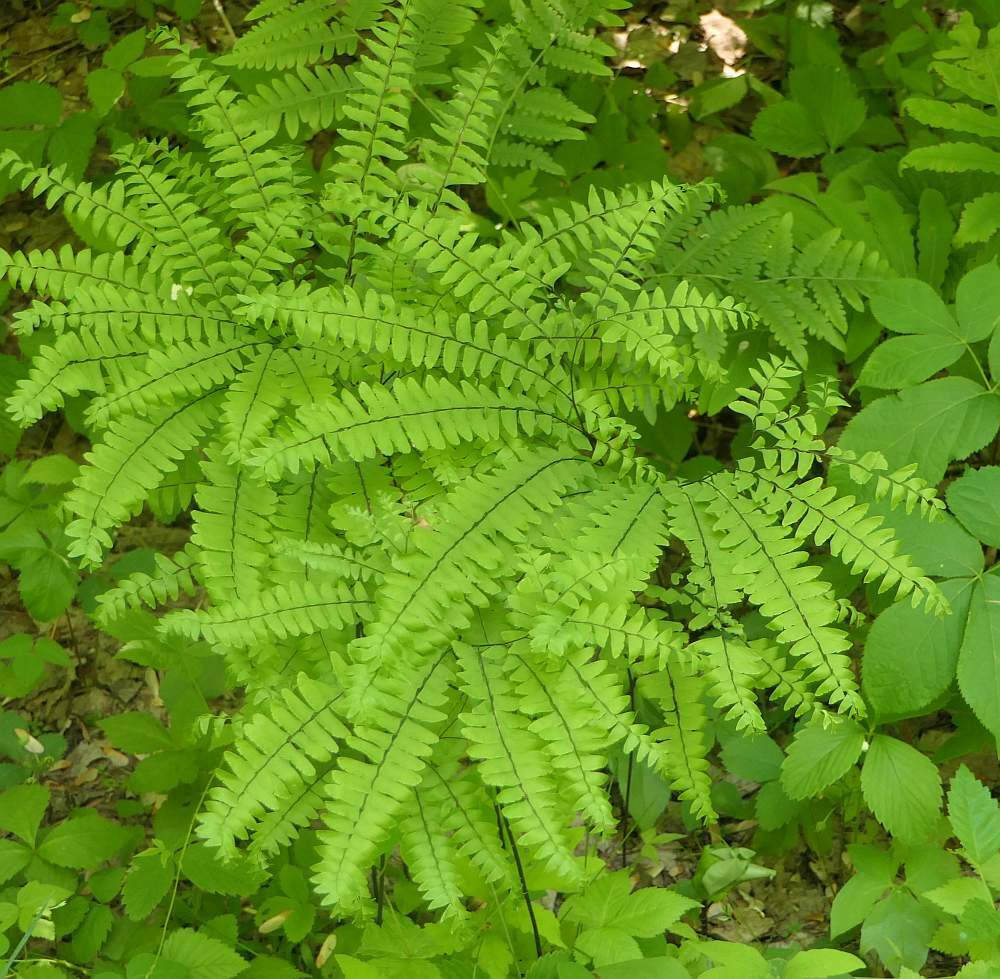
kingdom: Plantae
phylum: Tracheophyta
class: Polypodiopsida
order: Polypodiales
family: Pteridaceae
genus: Adiantum
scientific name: Adiantum pedatum
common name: Five-finger fern
